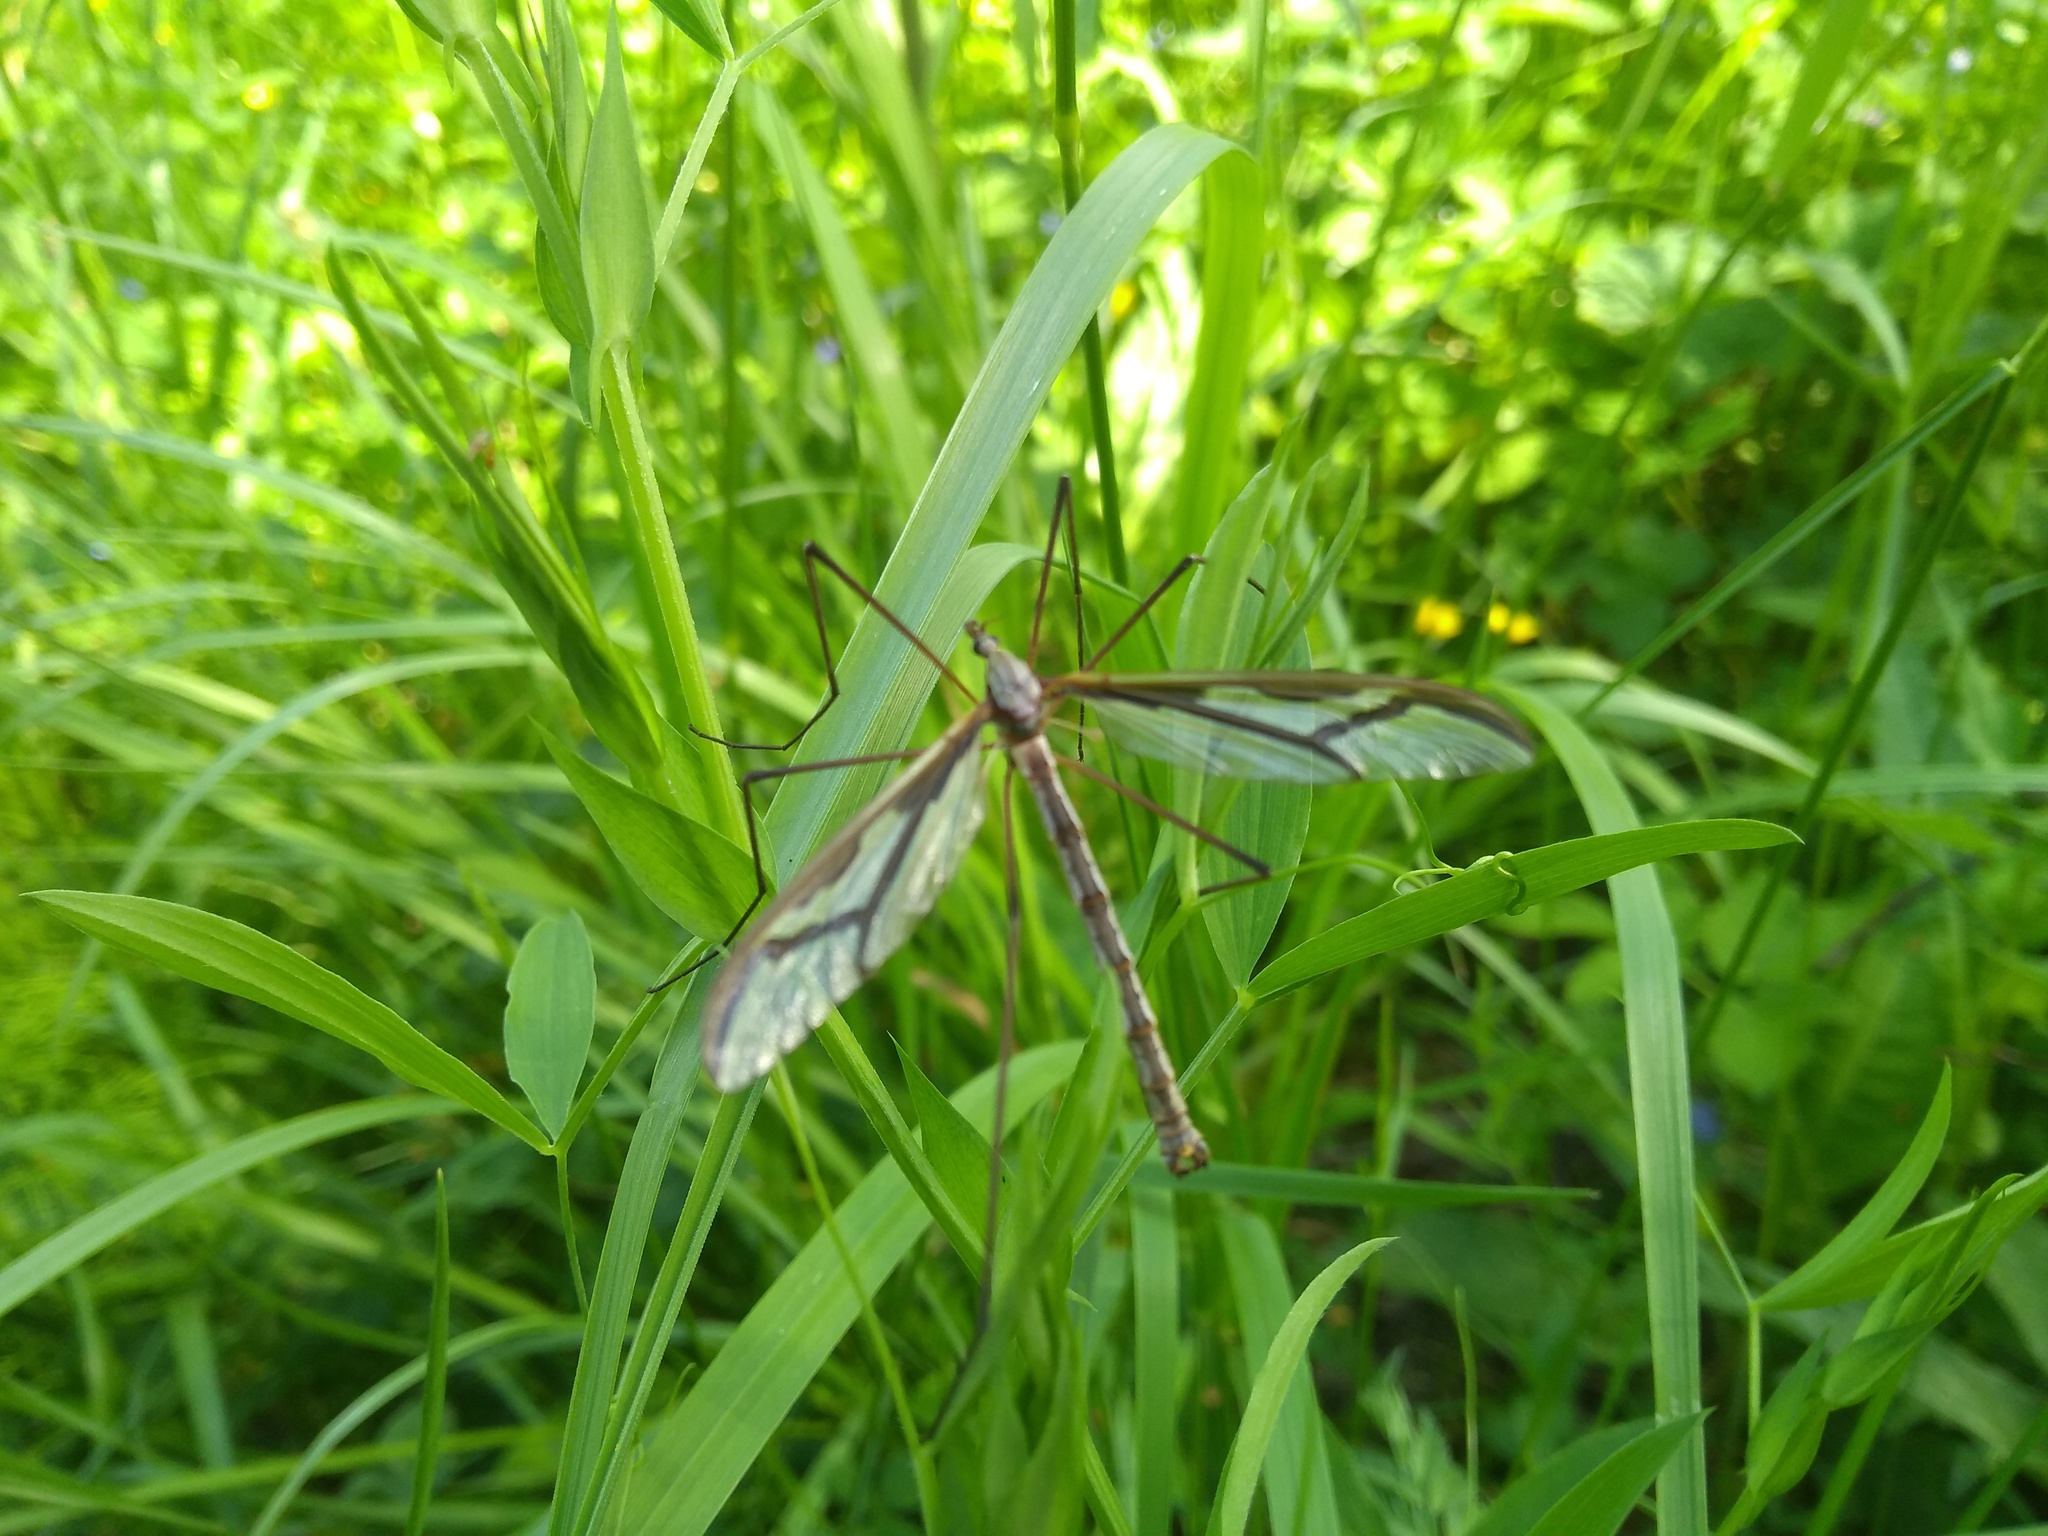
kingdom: Animalia
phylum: Arthropoda
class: Insecta
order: Diptera
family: Pediciidae
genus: Pedicia
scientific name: Pedicia rivosa
